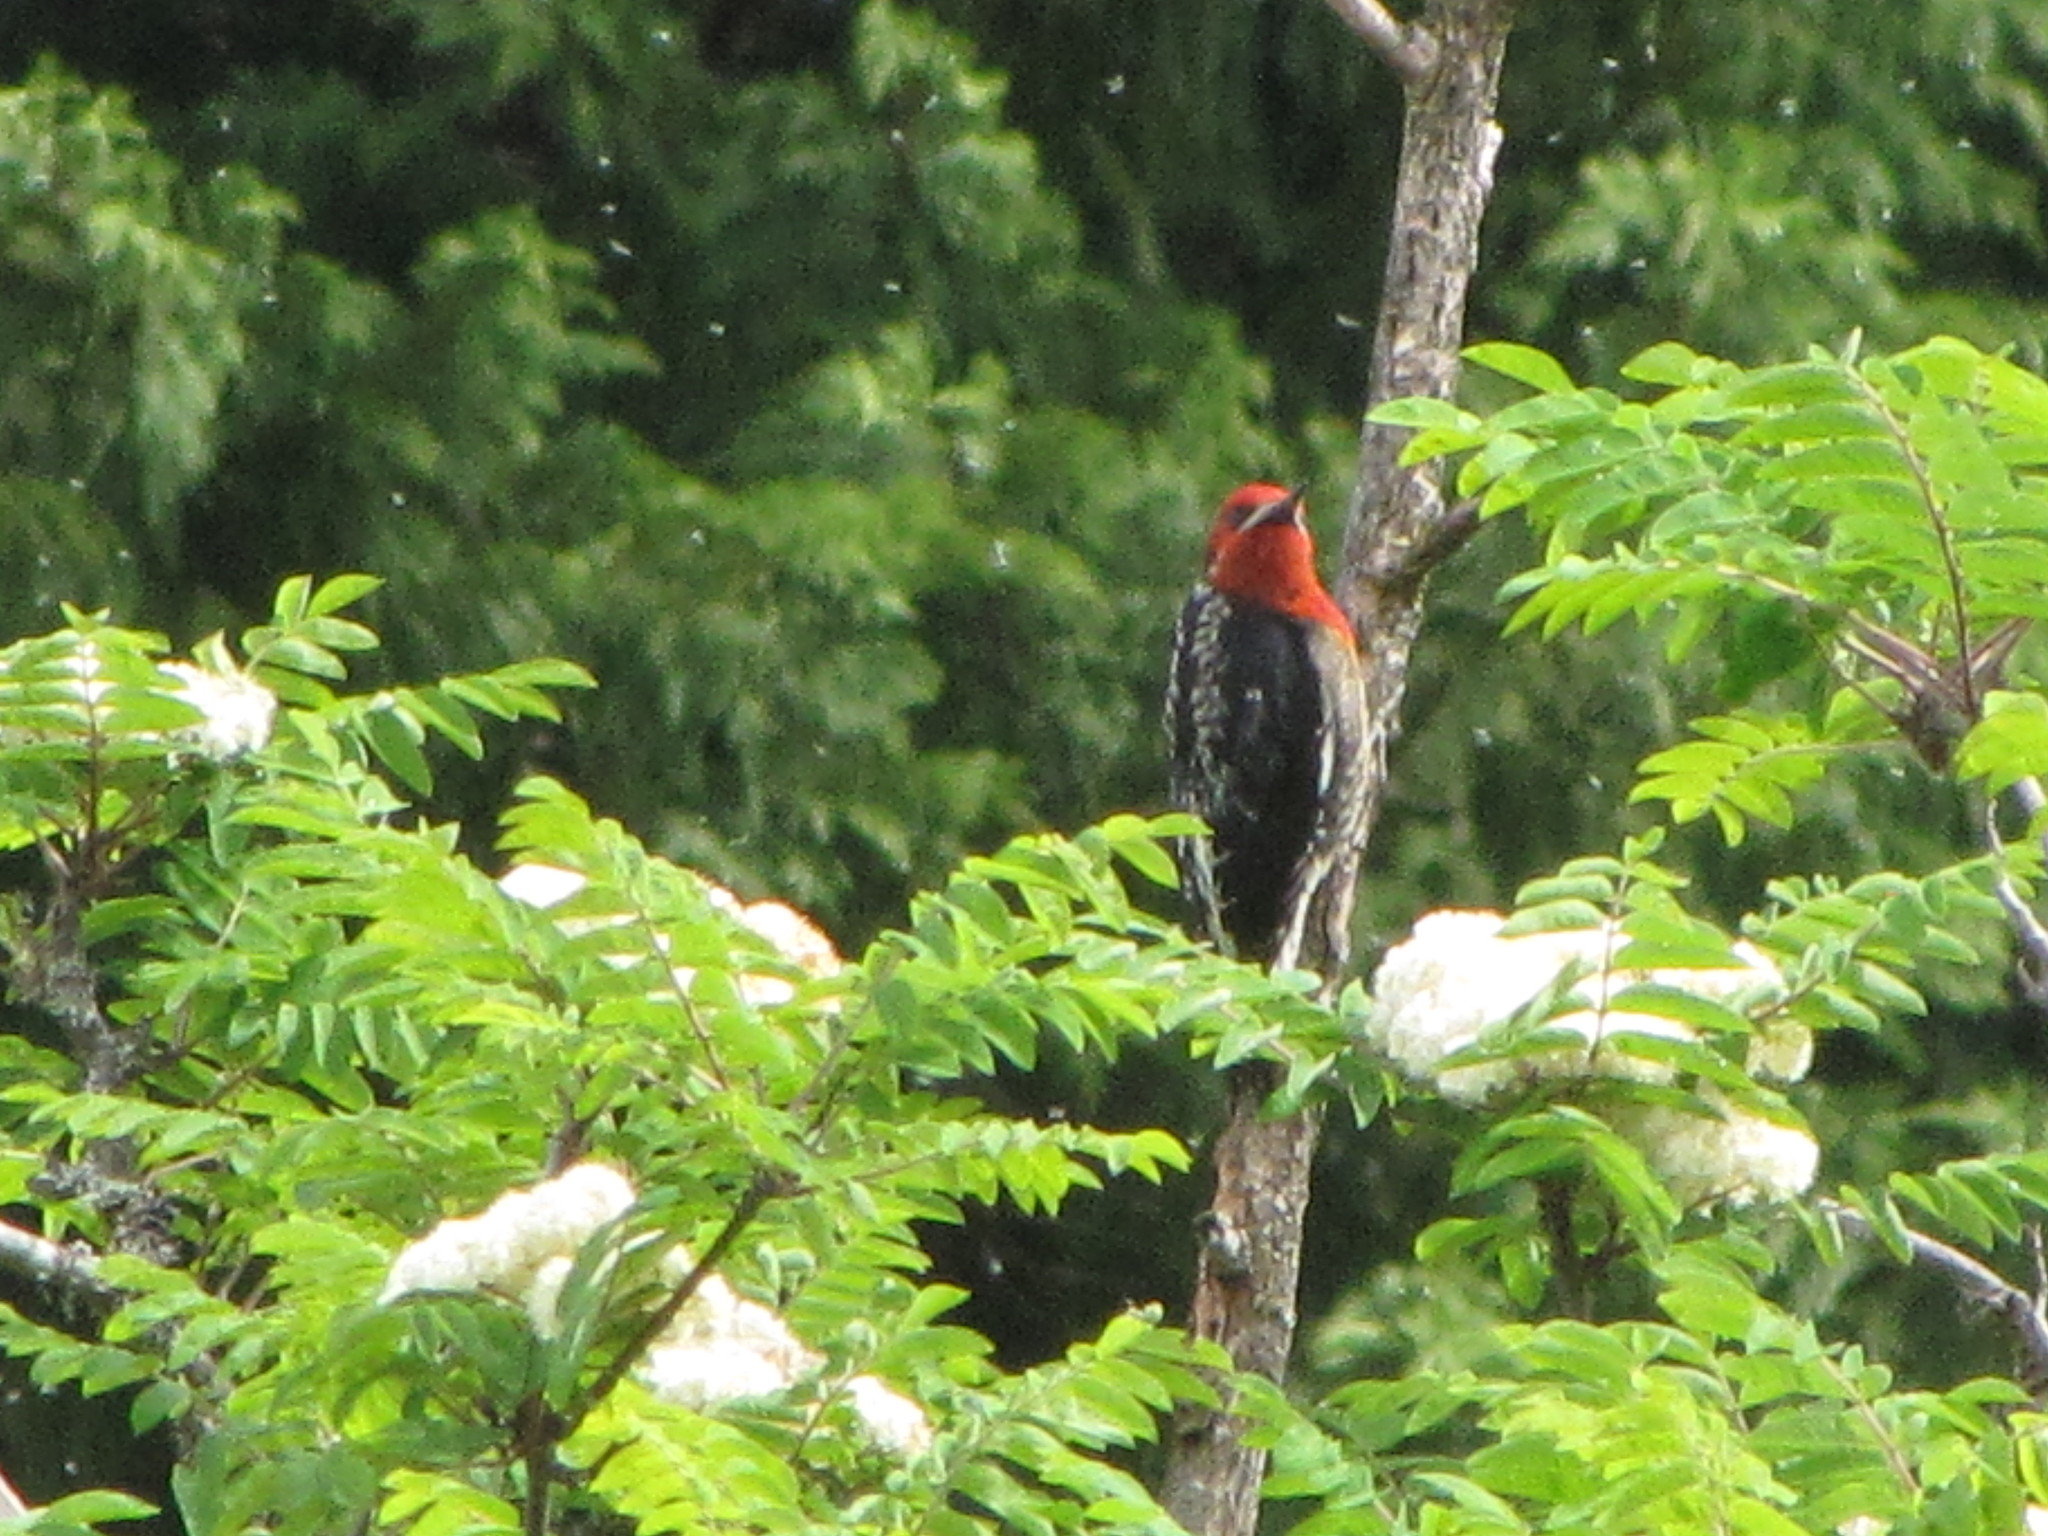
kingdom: Animalia
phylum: Chordata
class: Aves
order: Piciformes
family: Picidae
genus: Sphyrapicus
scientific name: Sphyrapicus ruber
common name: Red-breasted sapsucker
